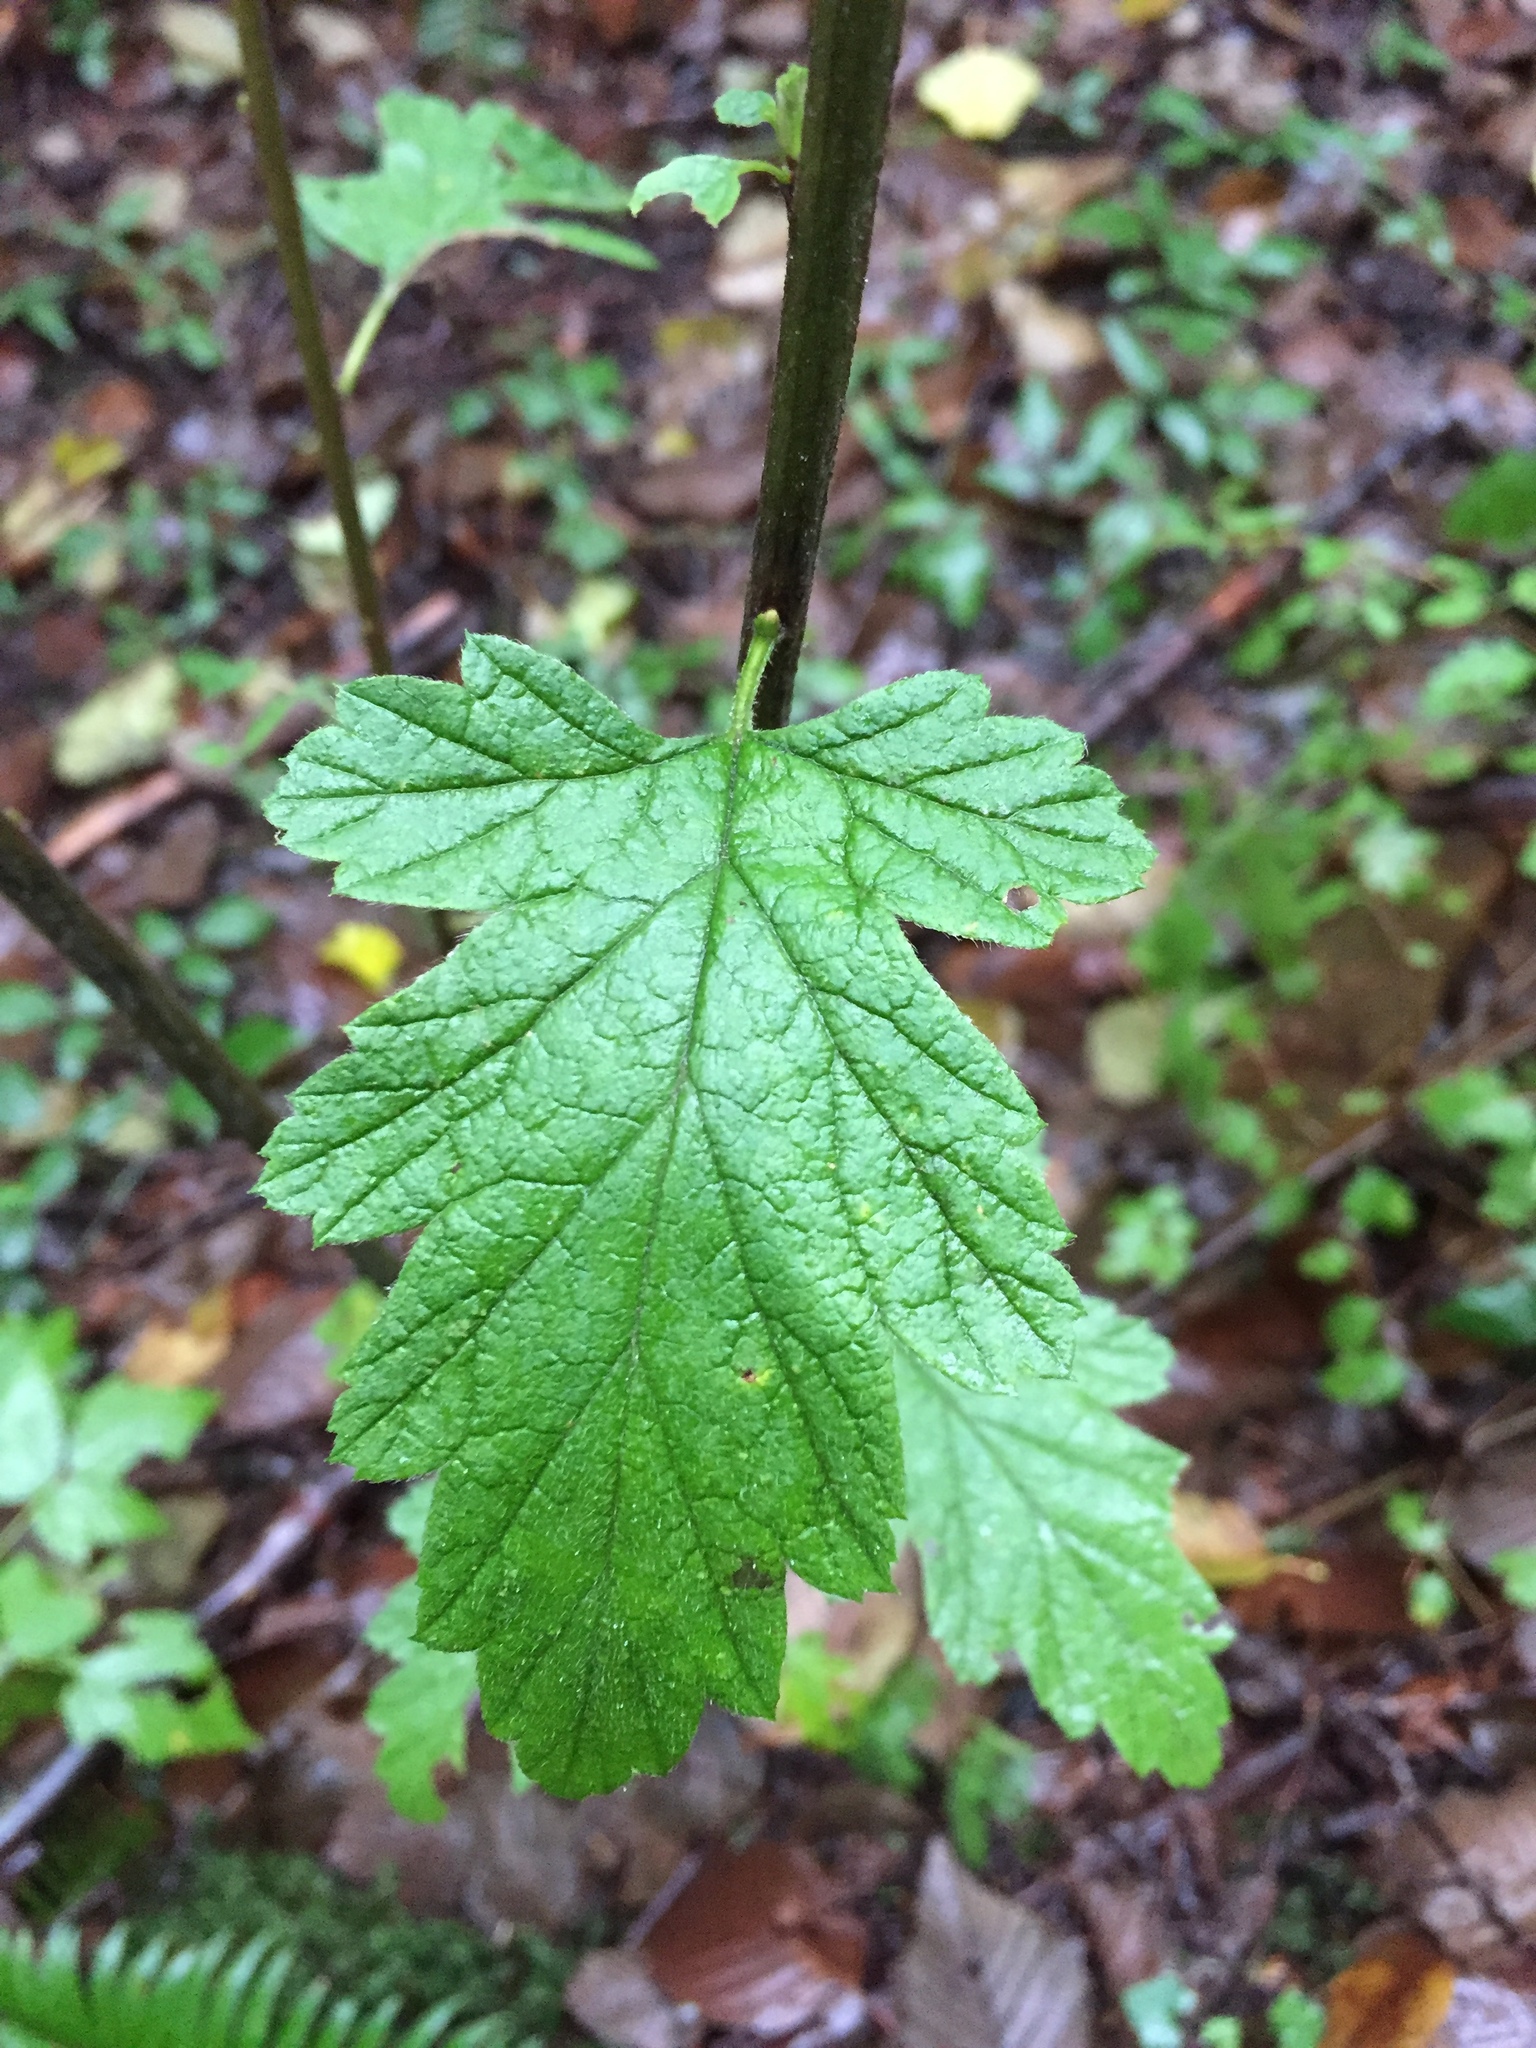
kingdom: Plantae
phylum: Tracheophyta
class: Magnoliopsida
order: Rosales
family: Rosaceae
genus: Holodiscus
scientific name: Holodiscus discolor
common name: Oceanspray
